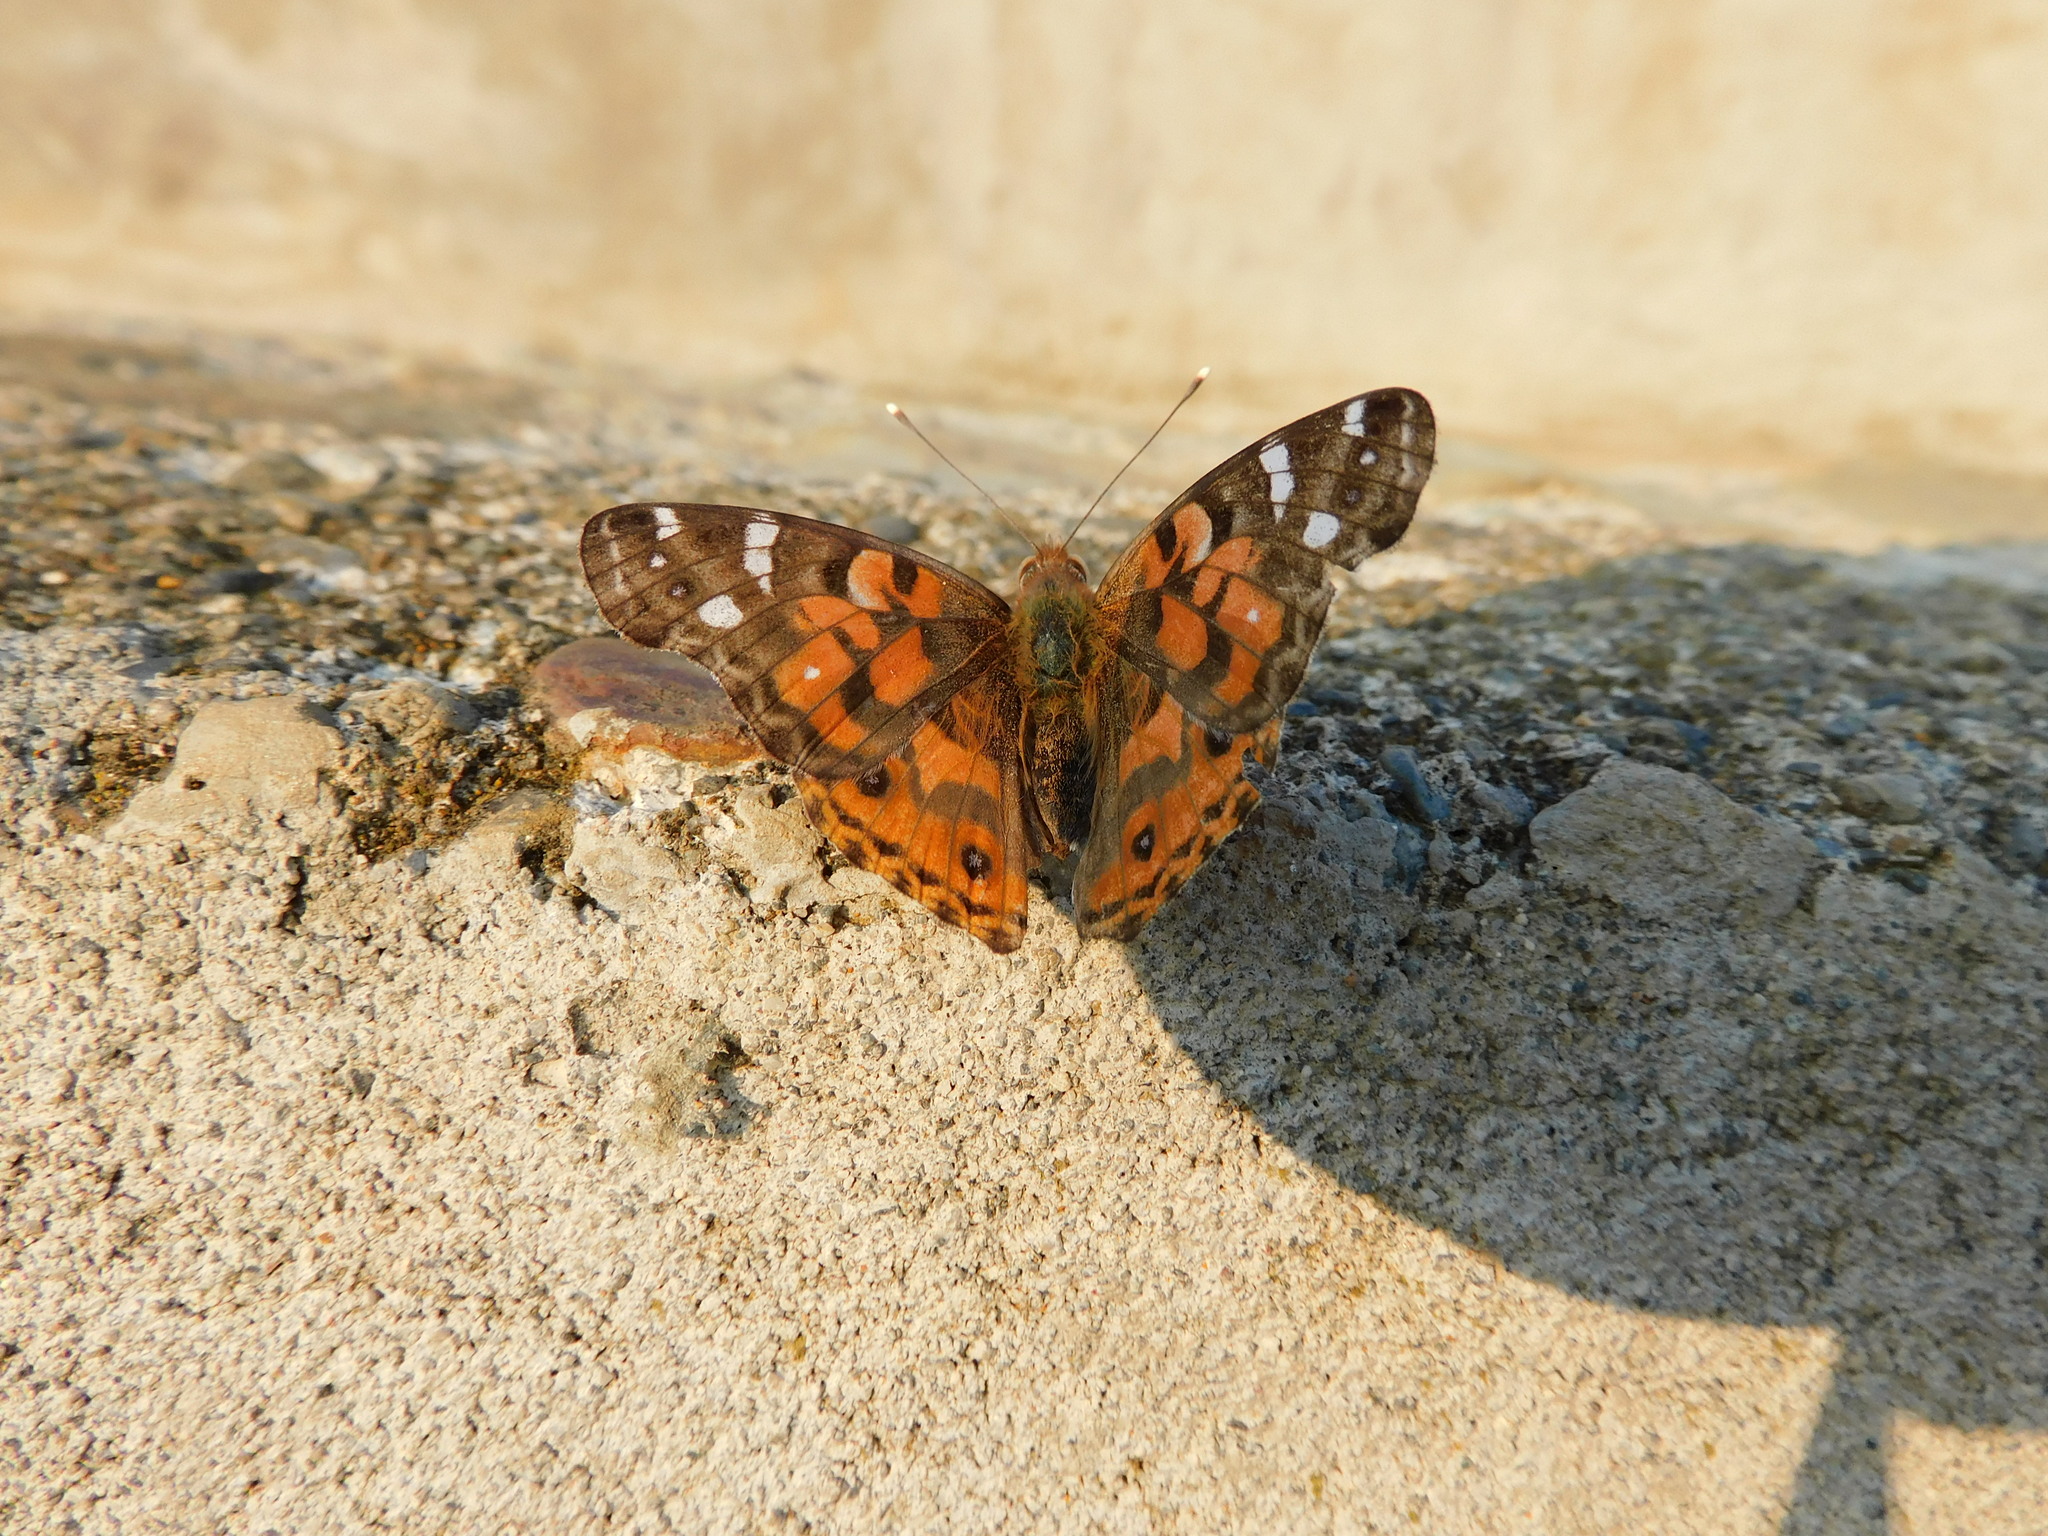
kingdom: Animalia
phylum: Arthropoda
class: Insecta
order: Lepidoptera
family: Nymphalidae
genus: Vanessa
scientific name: Vanessa braziliensis
